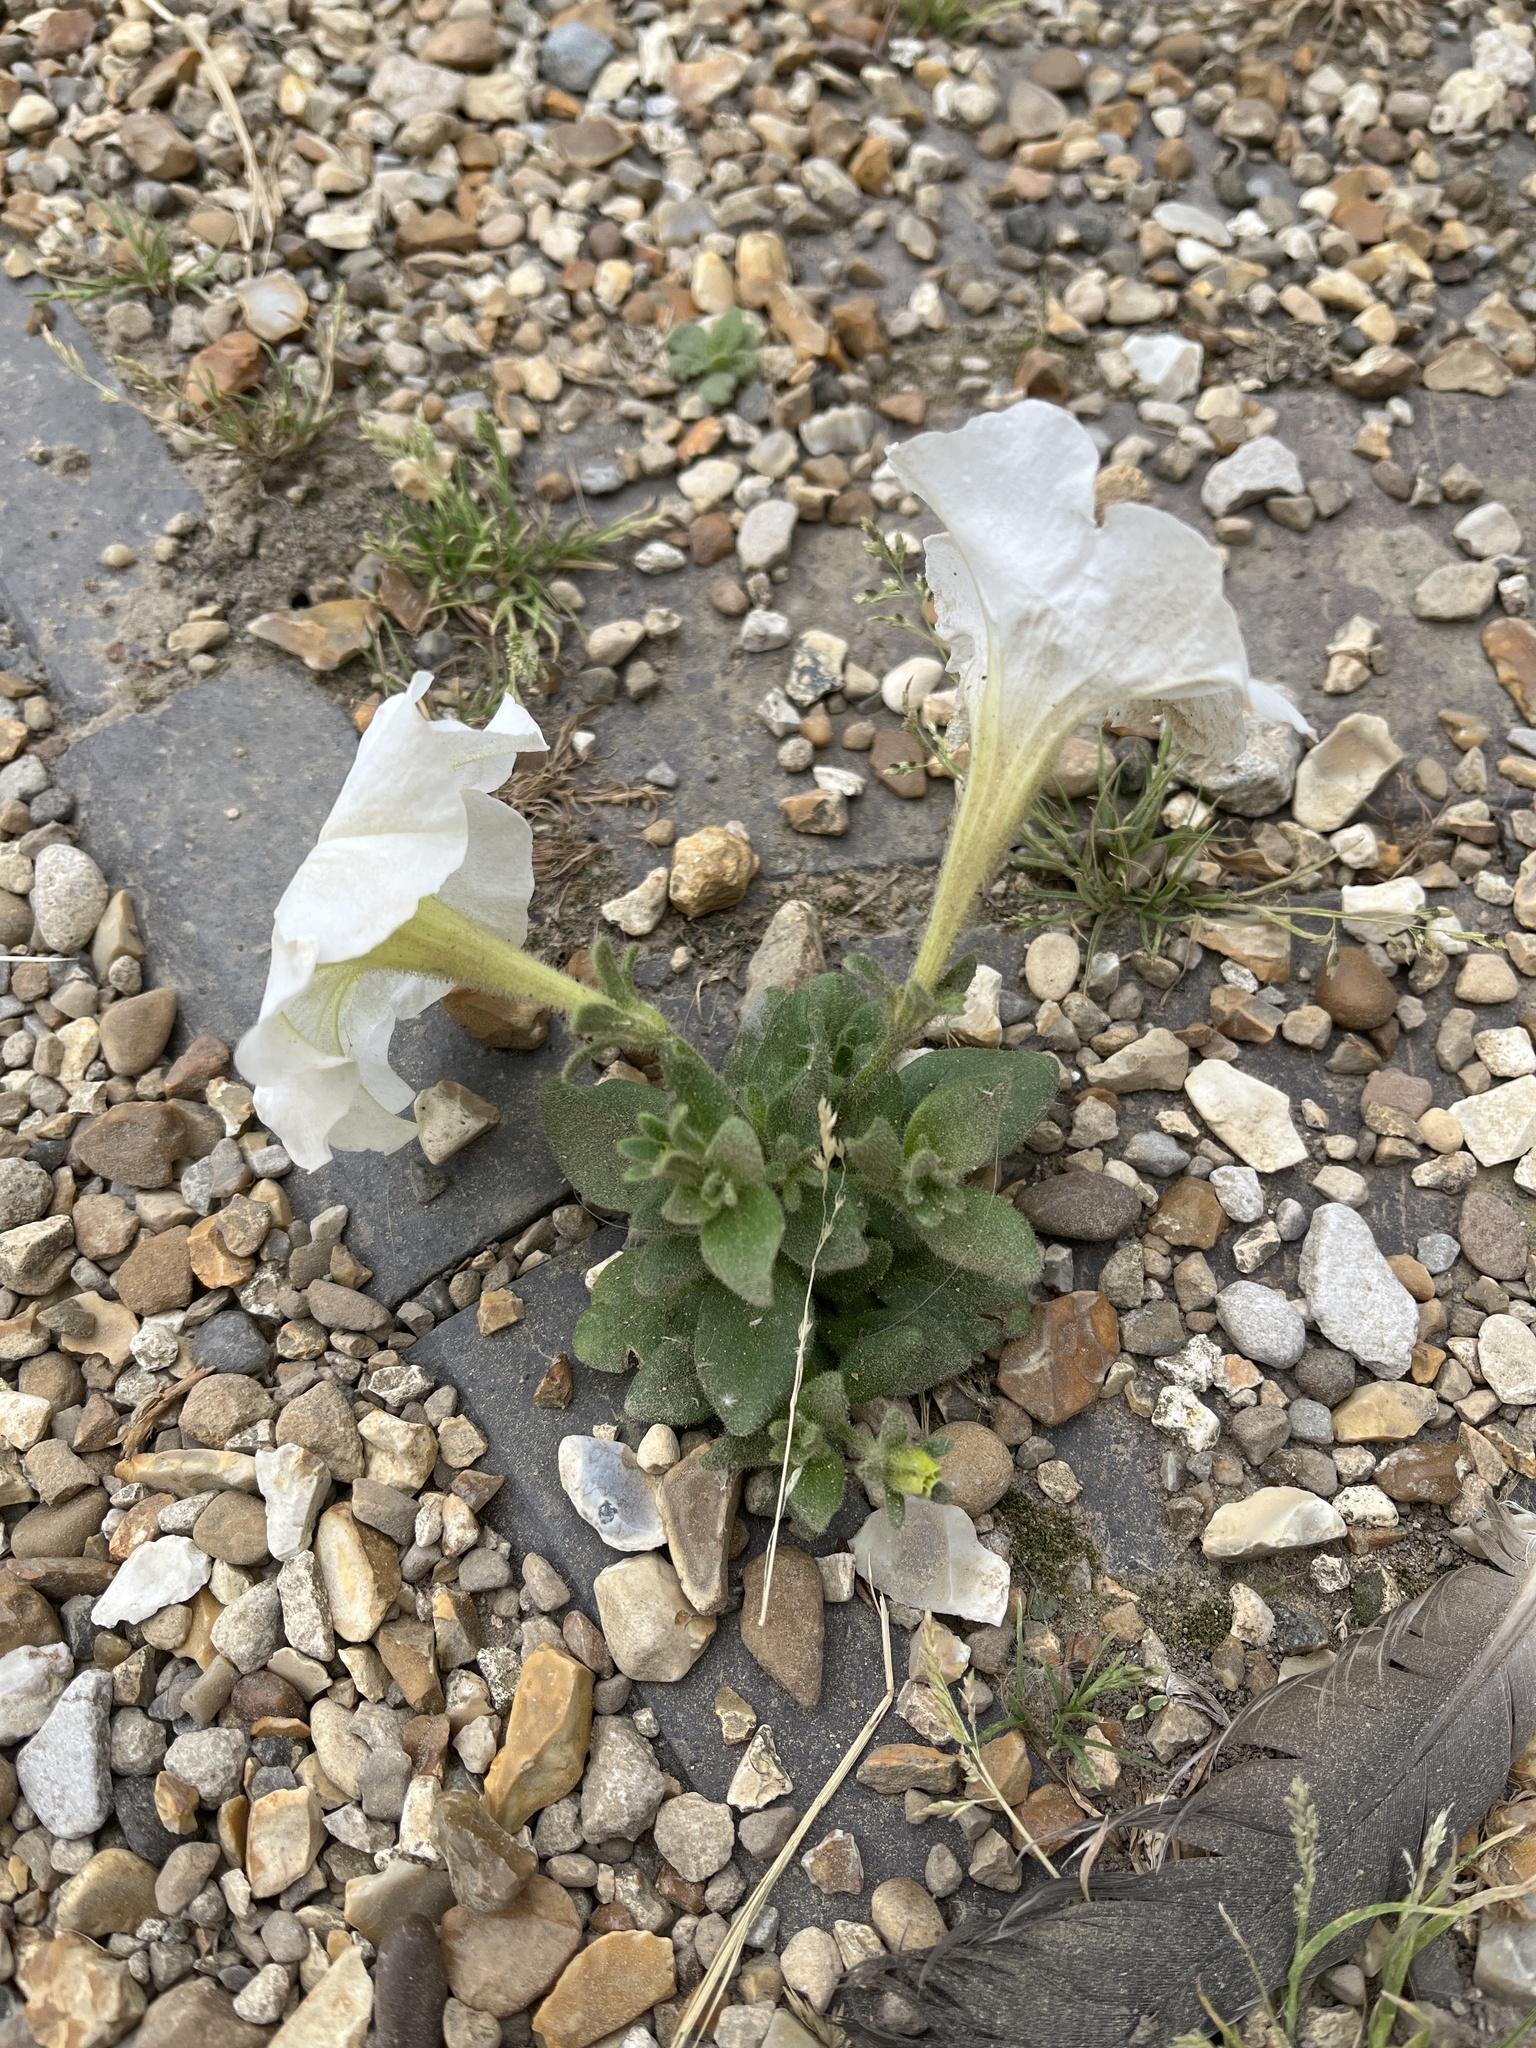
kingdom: Plantae
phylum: Tracheophyta
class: Magnoliopsida
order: Solanales
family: Solanaceae
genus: Petunia
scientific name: Petunia atkinsiana
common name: Petunia
